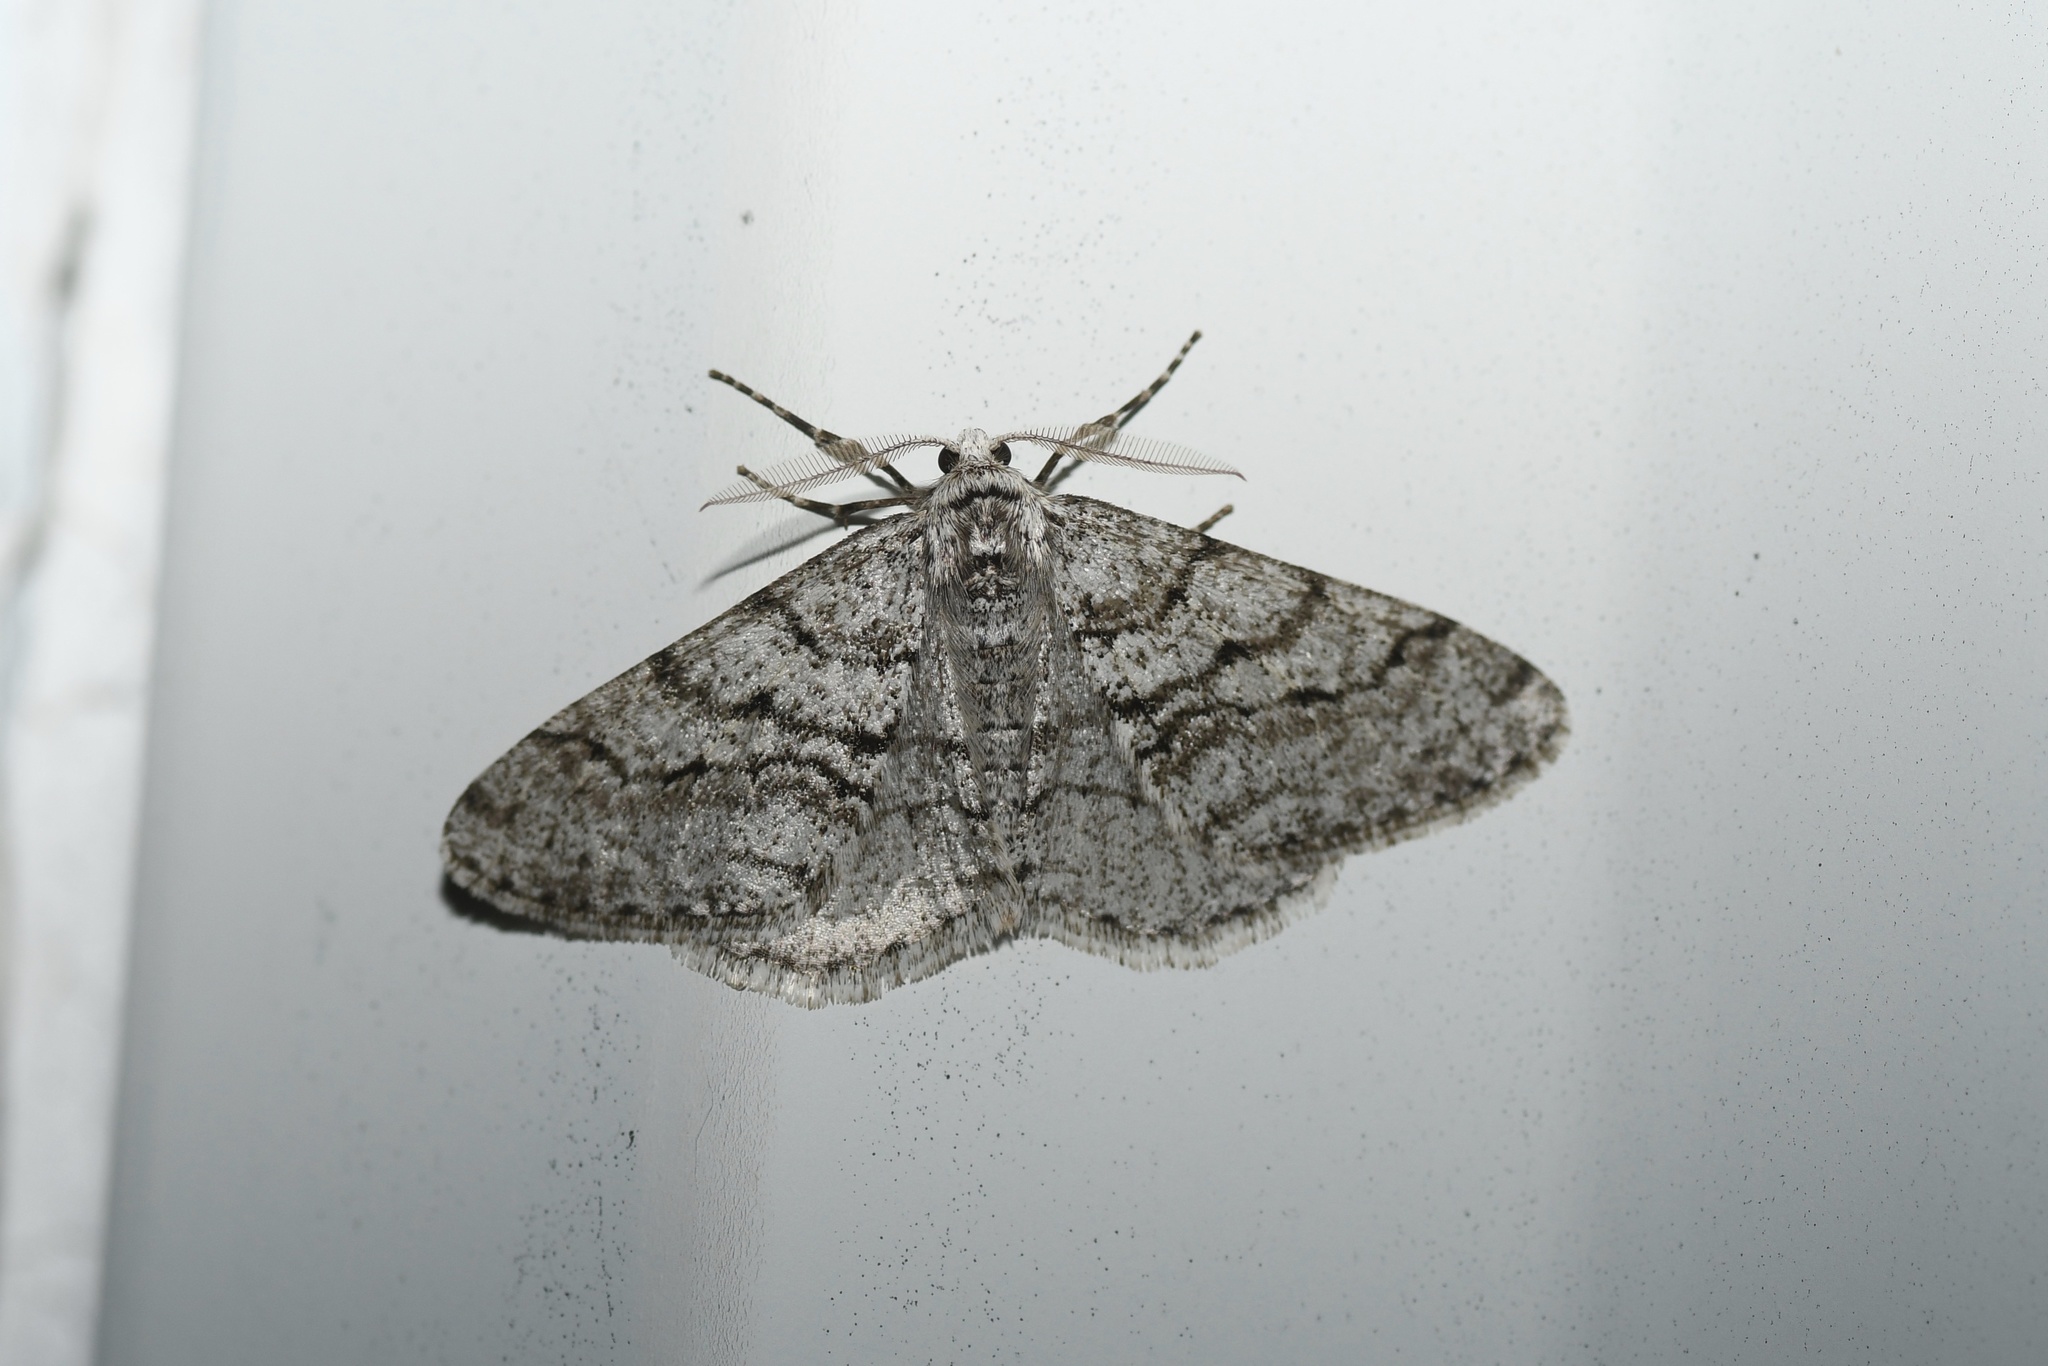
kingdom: Animalia
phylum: Arthropoda
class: Insecta
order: Lepidoptera
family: Geometridae
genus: Phigalia
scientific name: Phigalia titea
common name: Spiny looper
